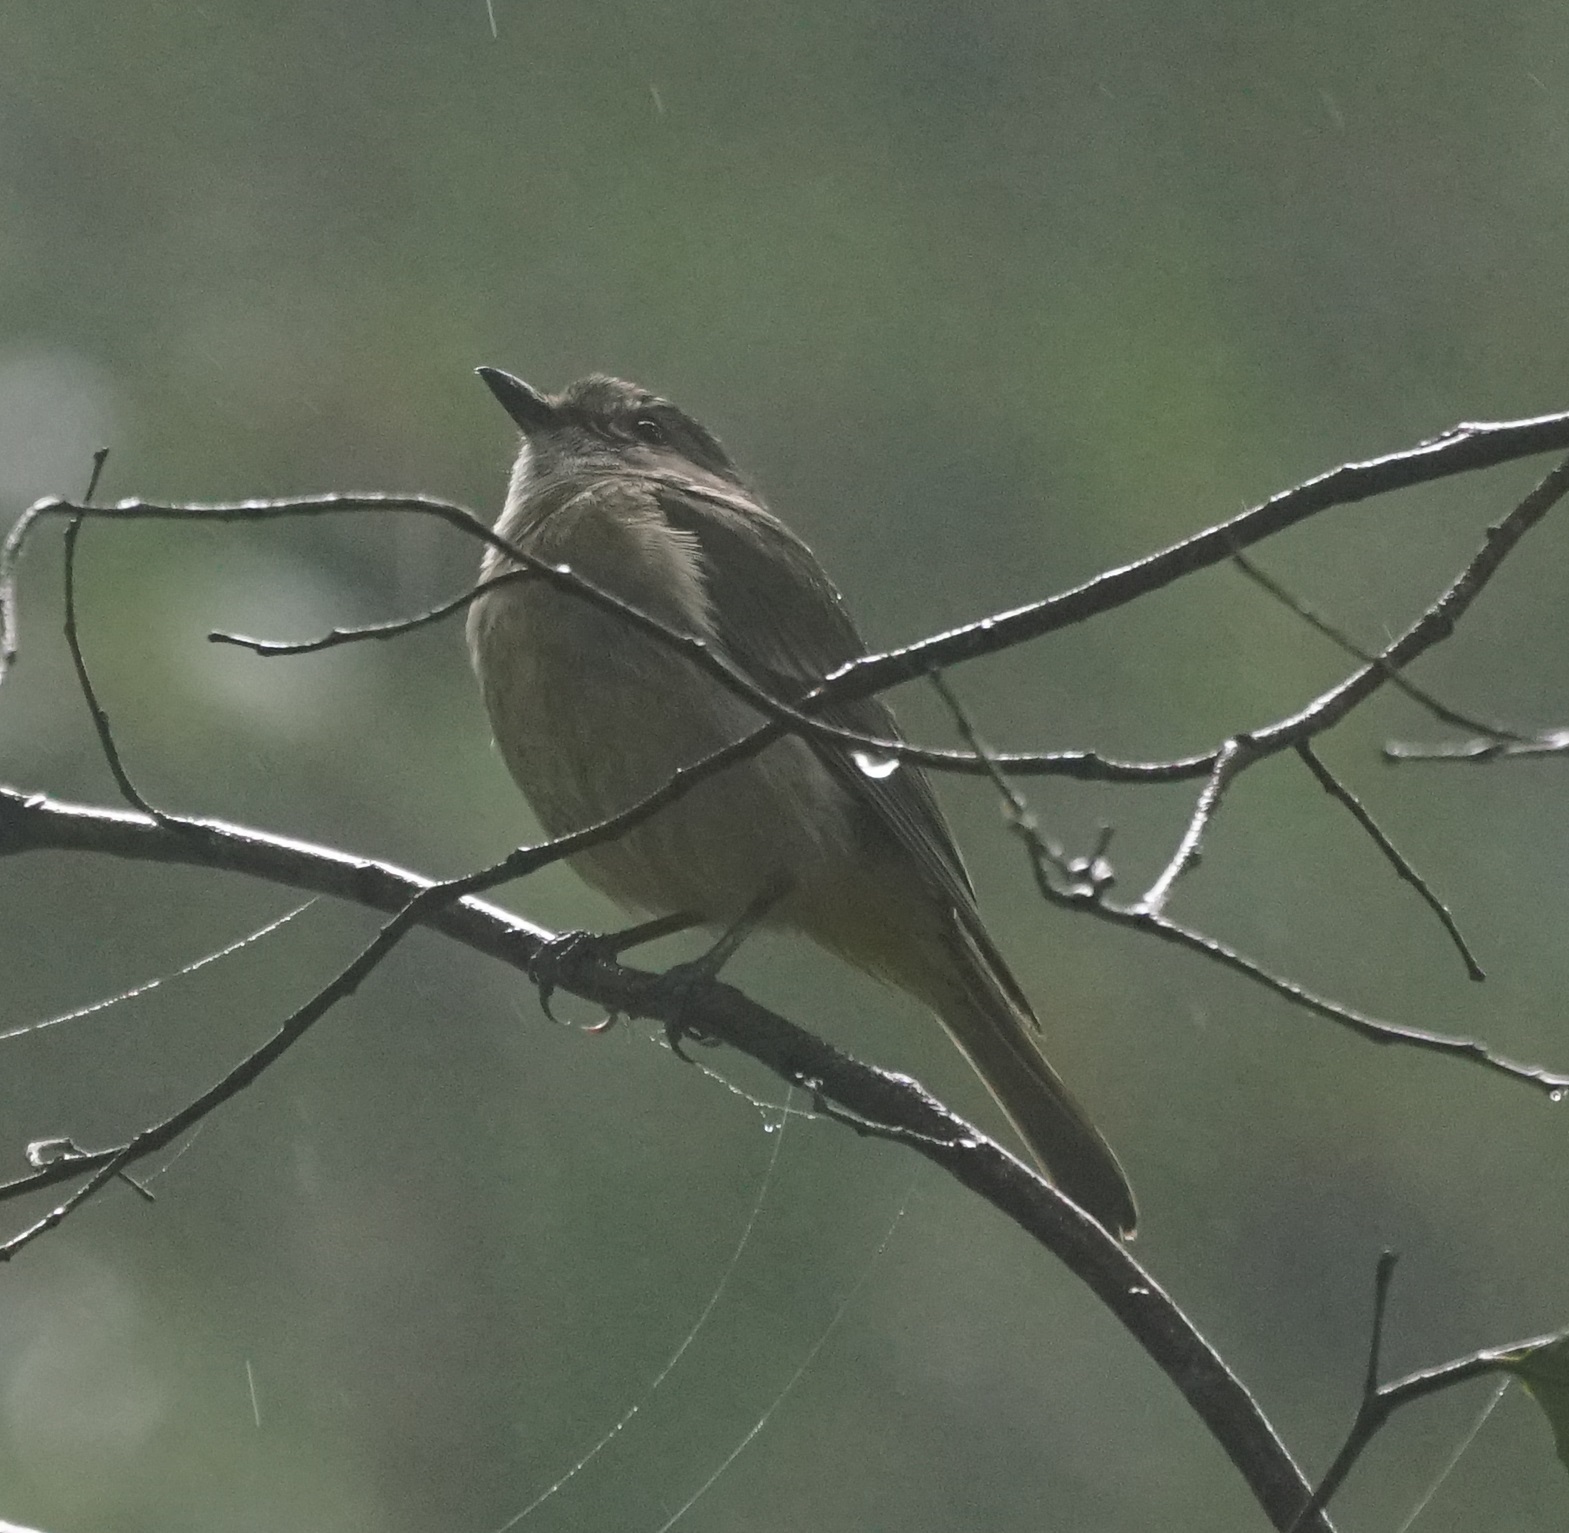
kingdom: Animalia
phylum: Chordata
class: Aves
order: Passeriformes
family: Pachycephalidae
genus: Pachycephala
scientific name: Pachycephala pectoralis
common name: Australian golden whistler
